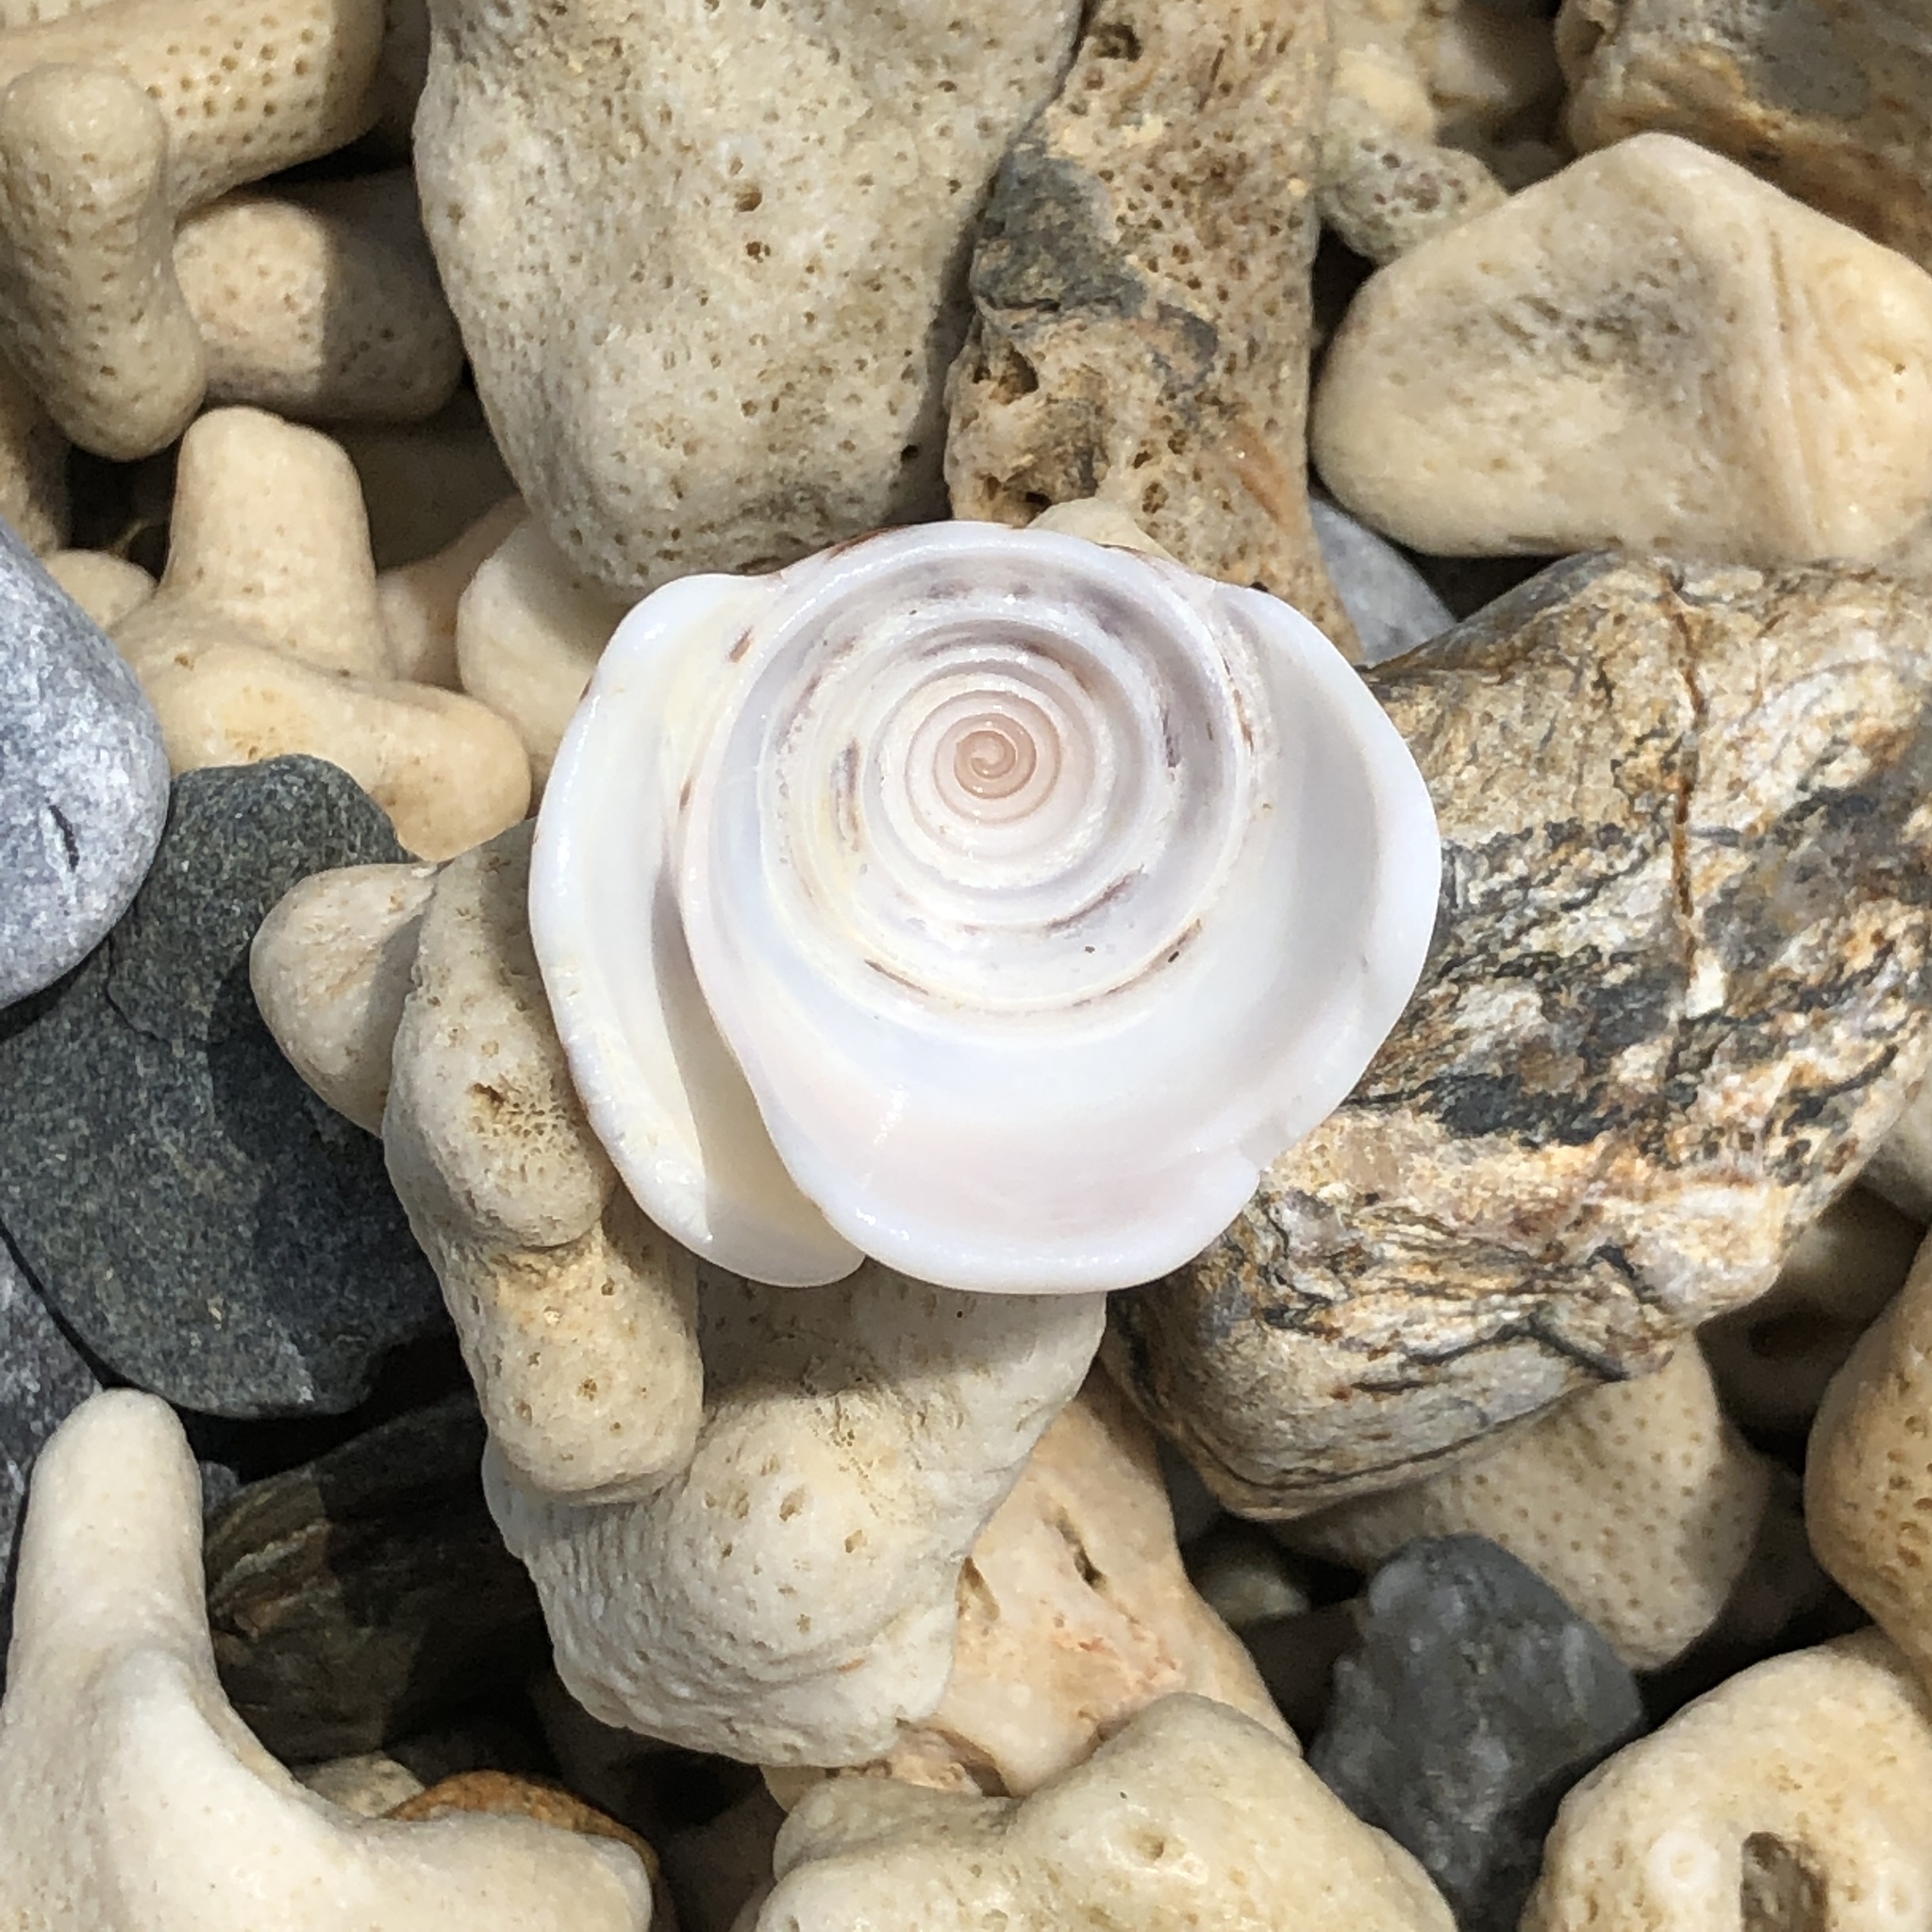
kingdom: Animalia
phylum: Mollusca
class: Gastropoda
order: Neogastropoda
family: Conidae
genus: Conus
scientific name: Conus striatus
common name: Striated cone
